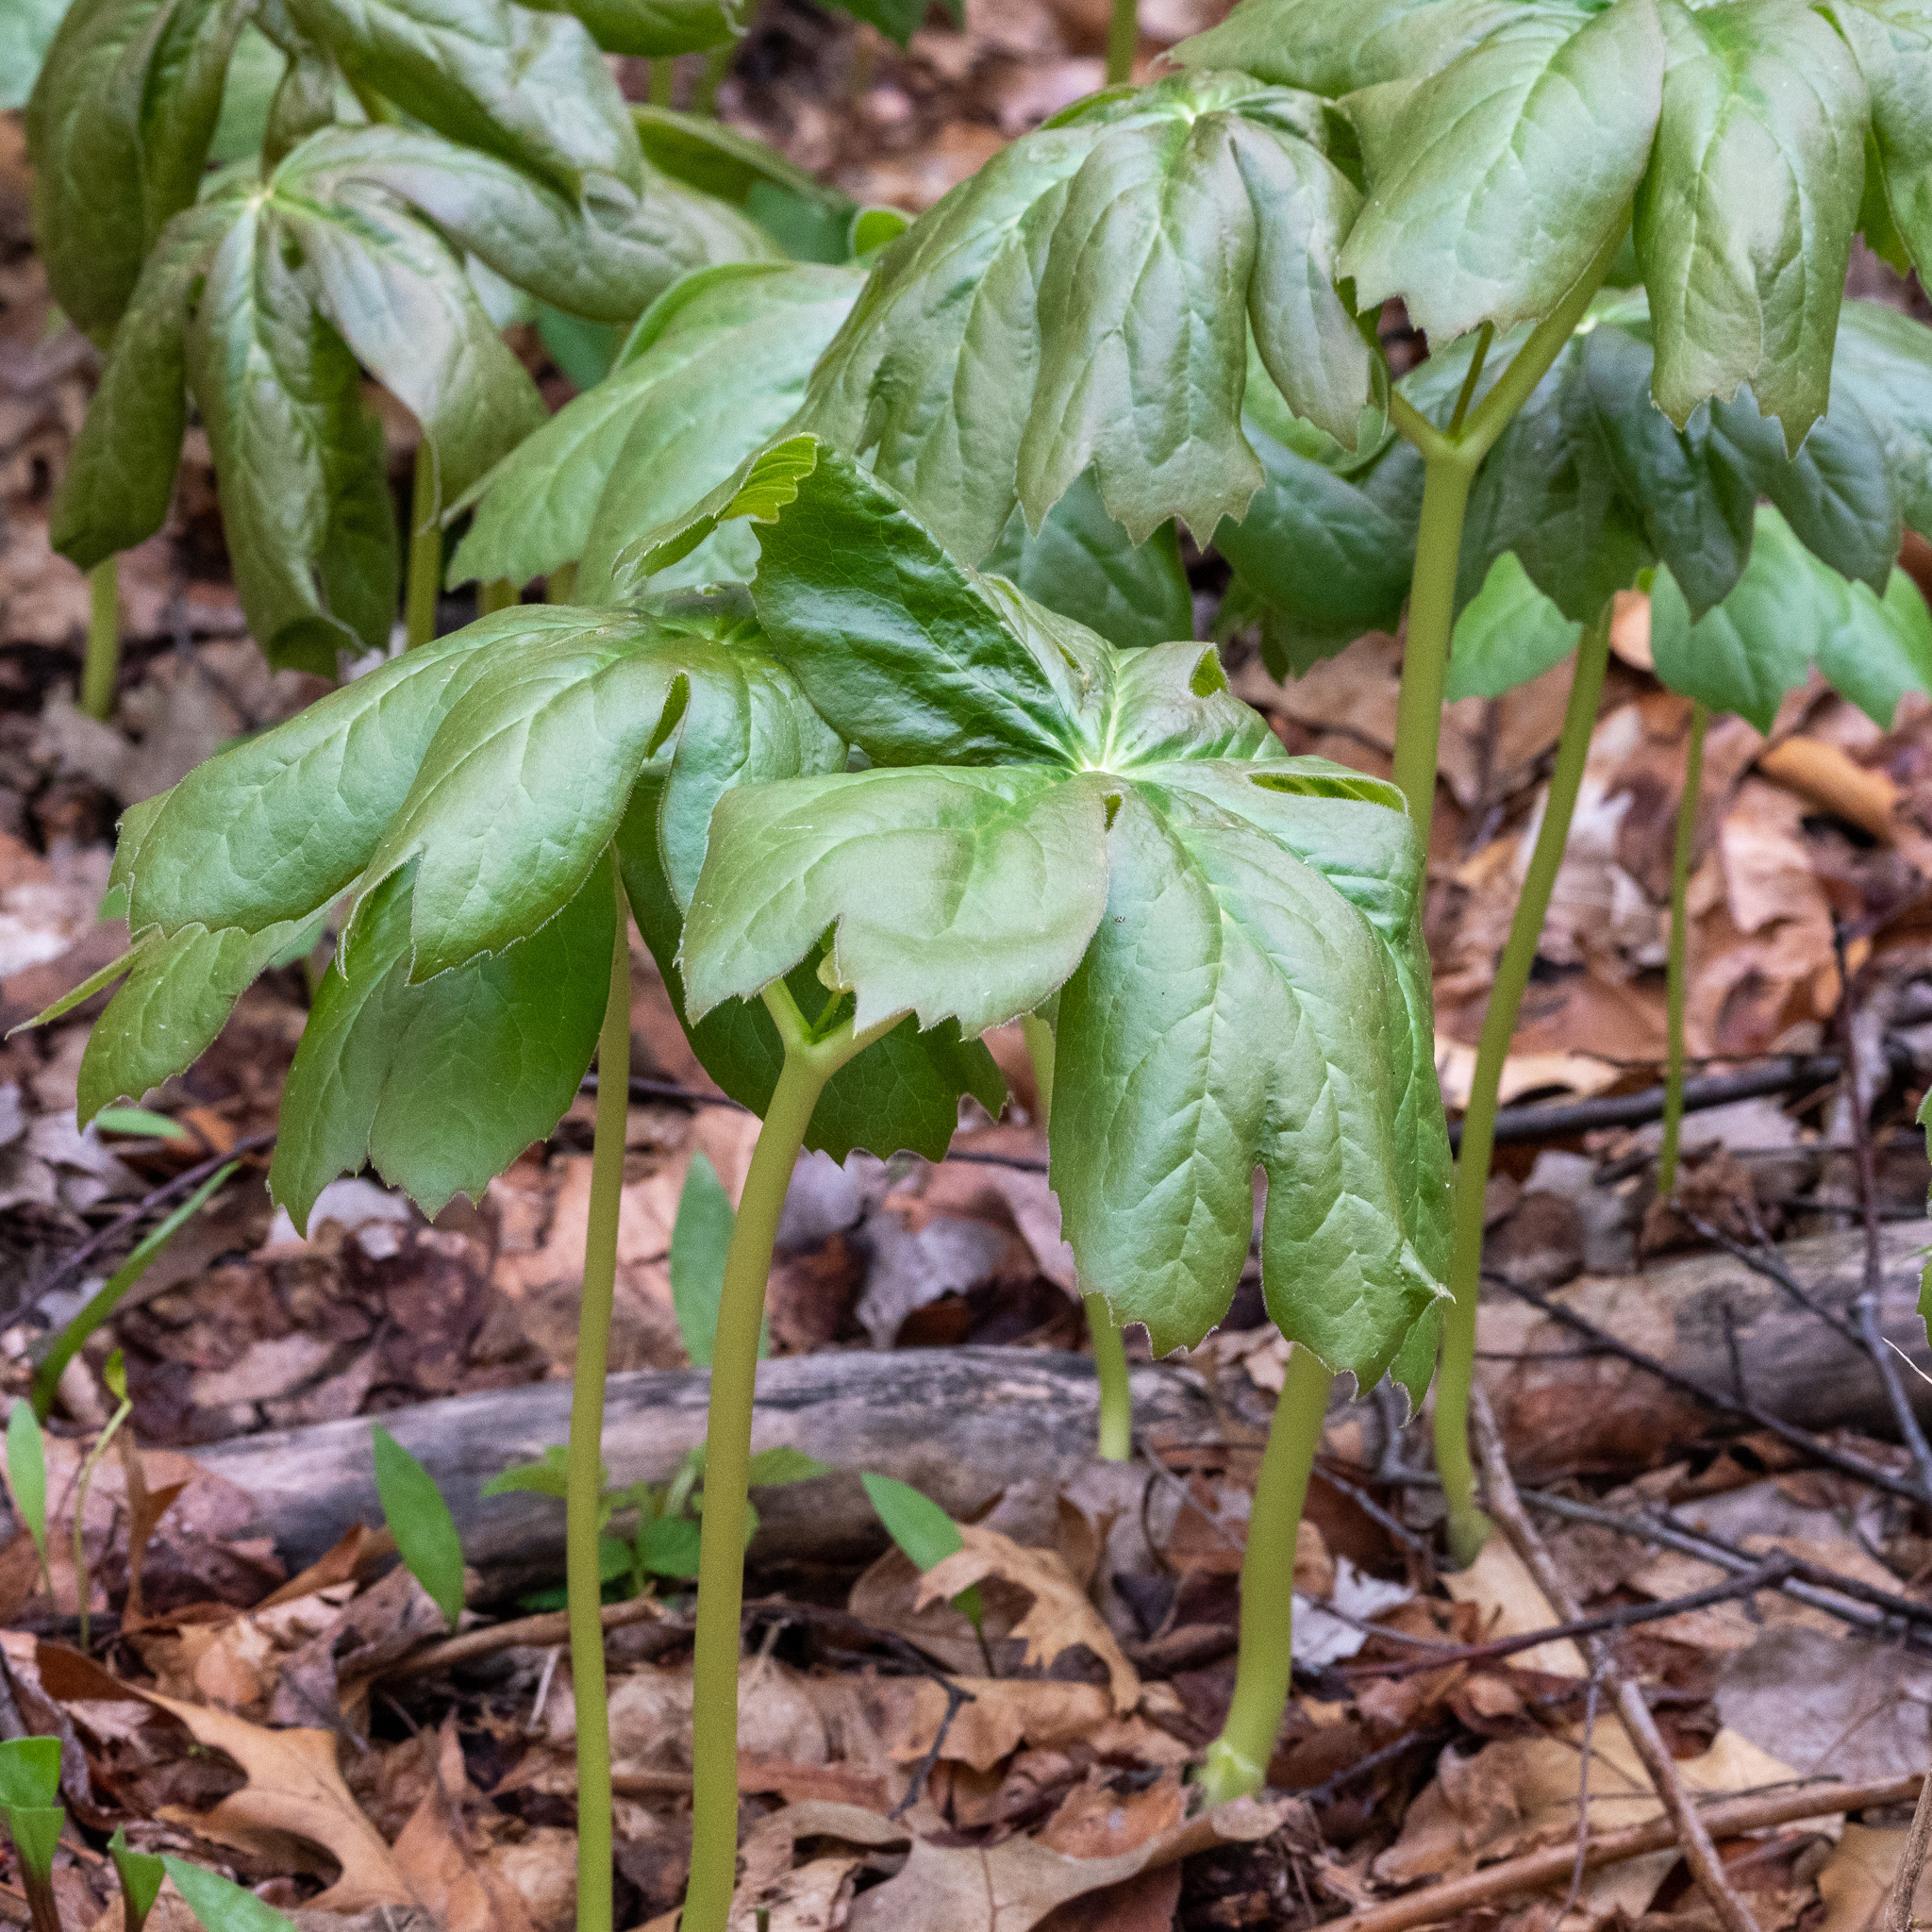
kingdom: Plantae
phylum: Tracheophyta
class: Magnoliopsida
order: Ranunculales
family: Berberidaceae
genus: Podophyllum
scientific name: Podophyllum peltatum
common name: Wild mandrake
